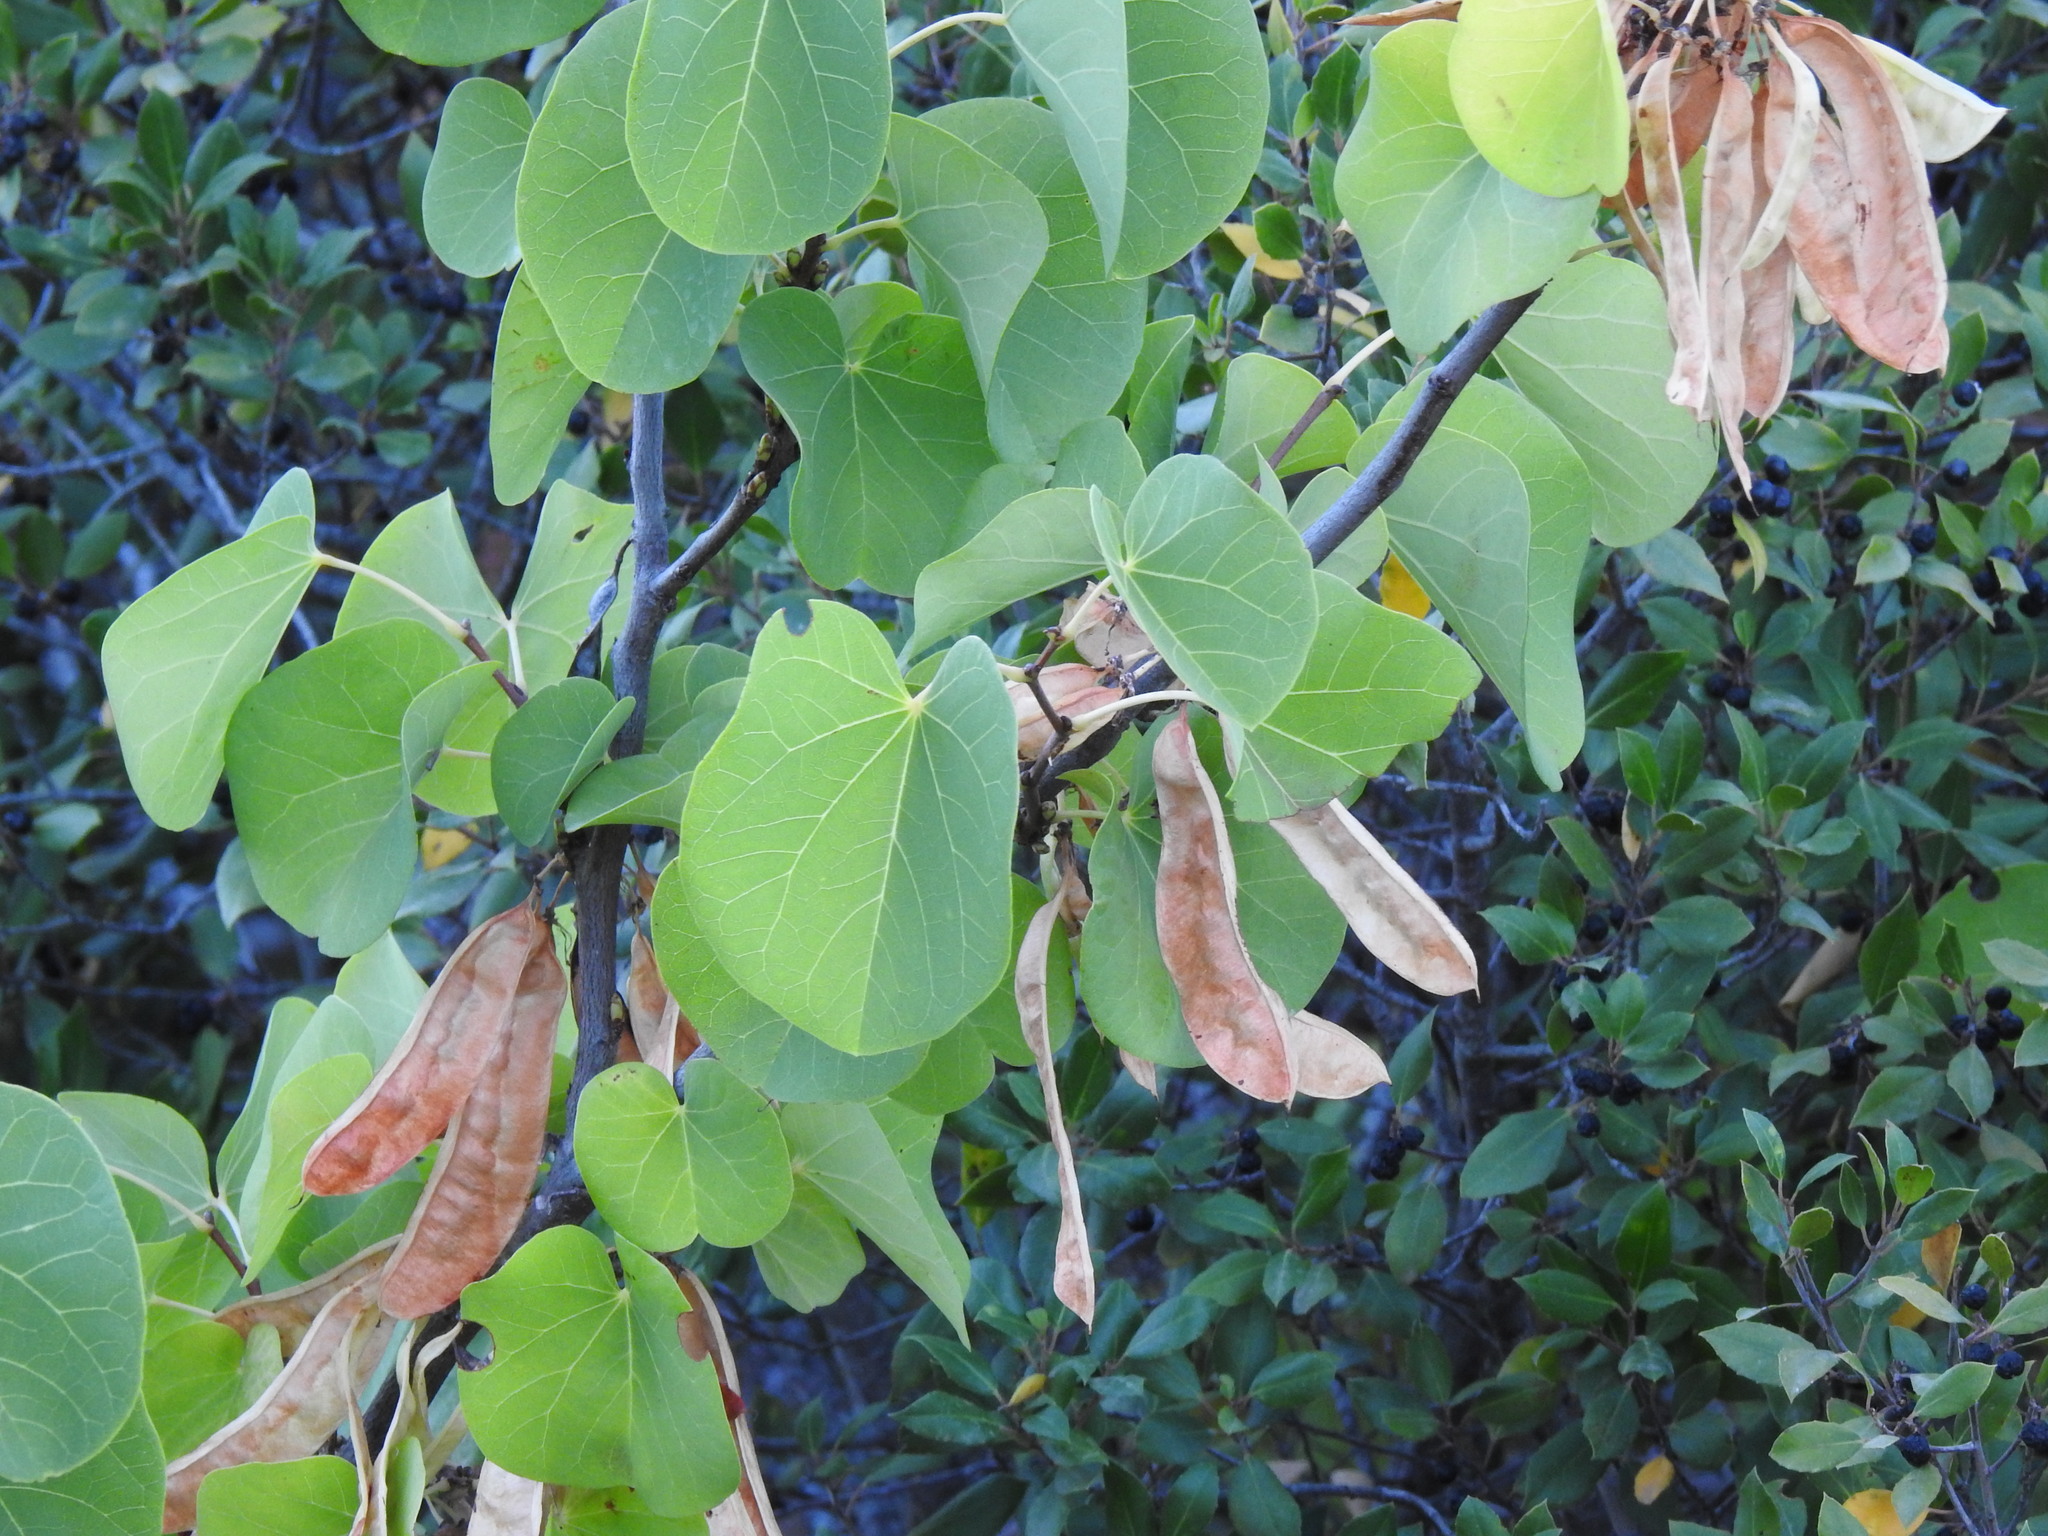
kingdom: Plantae
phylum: Tracheophyta
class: Magnoliopsida
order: Fabales
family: Fabaceae
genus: Cercis
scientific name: Cercis siliquastrum
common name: Judas tree
